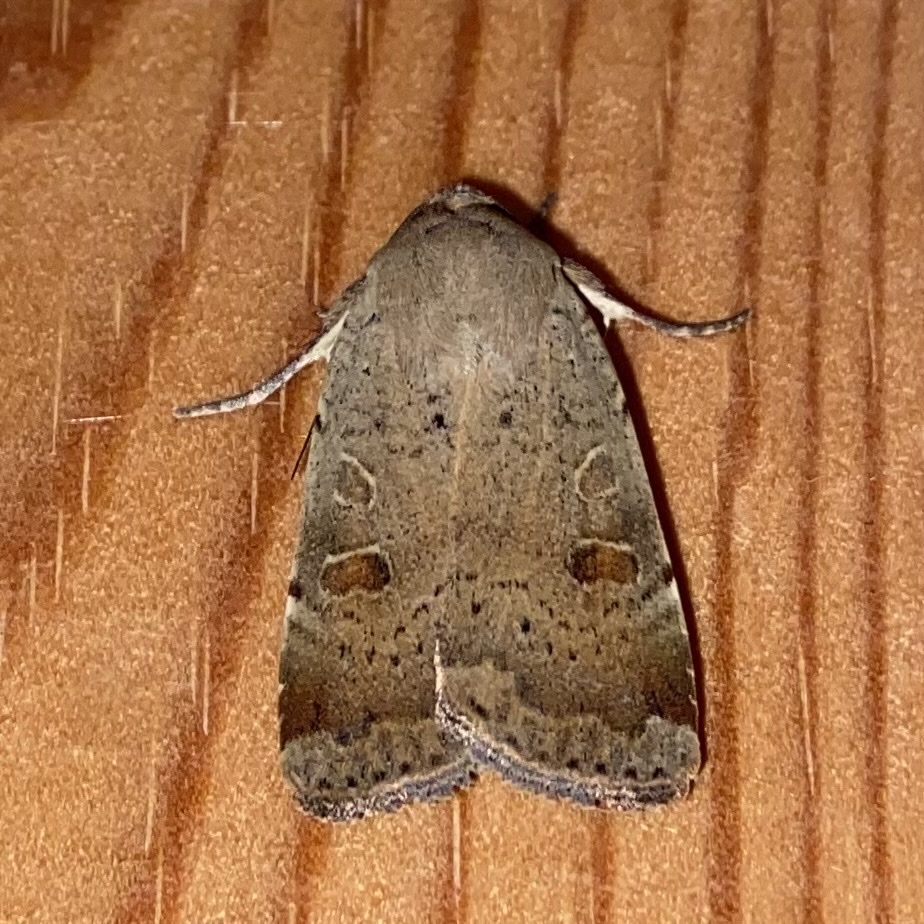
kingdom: Animalia
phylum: Arthropoda
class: Insecta
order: Lepidoptera
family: Noctuidae
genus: Noctua
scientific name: Noctua comes
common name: Lesser yellow underwing
